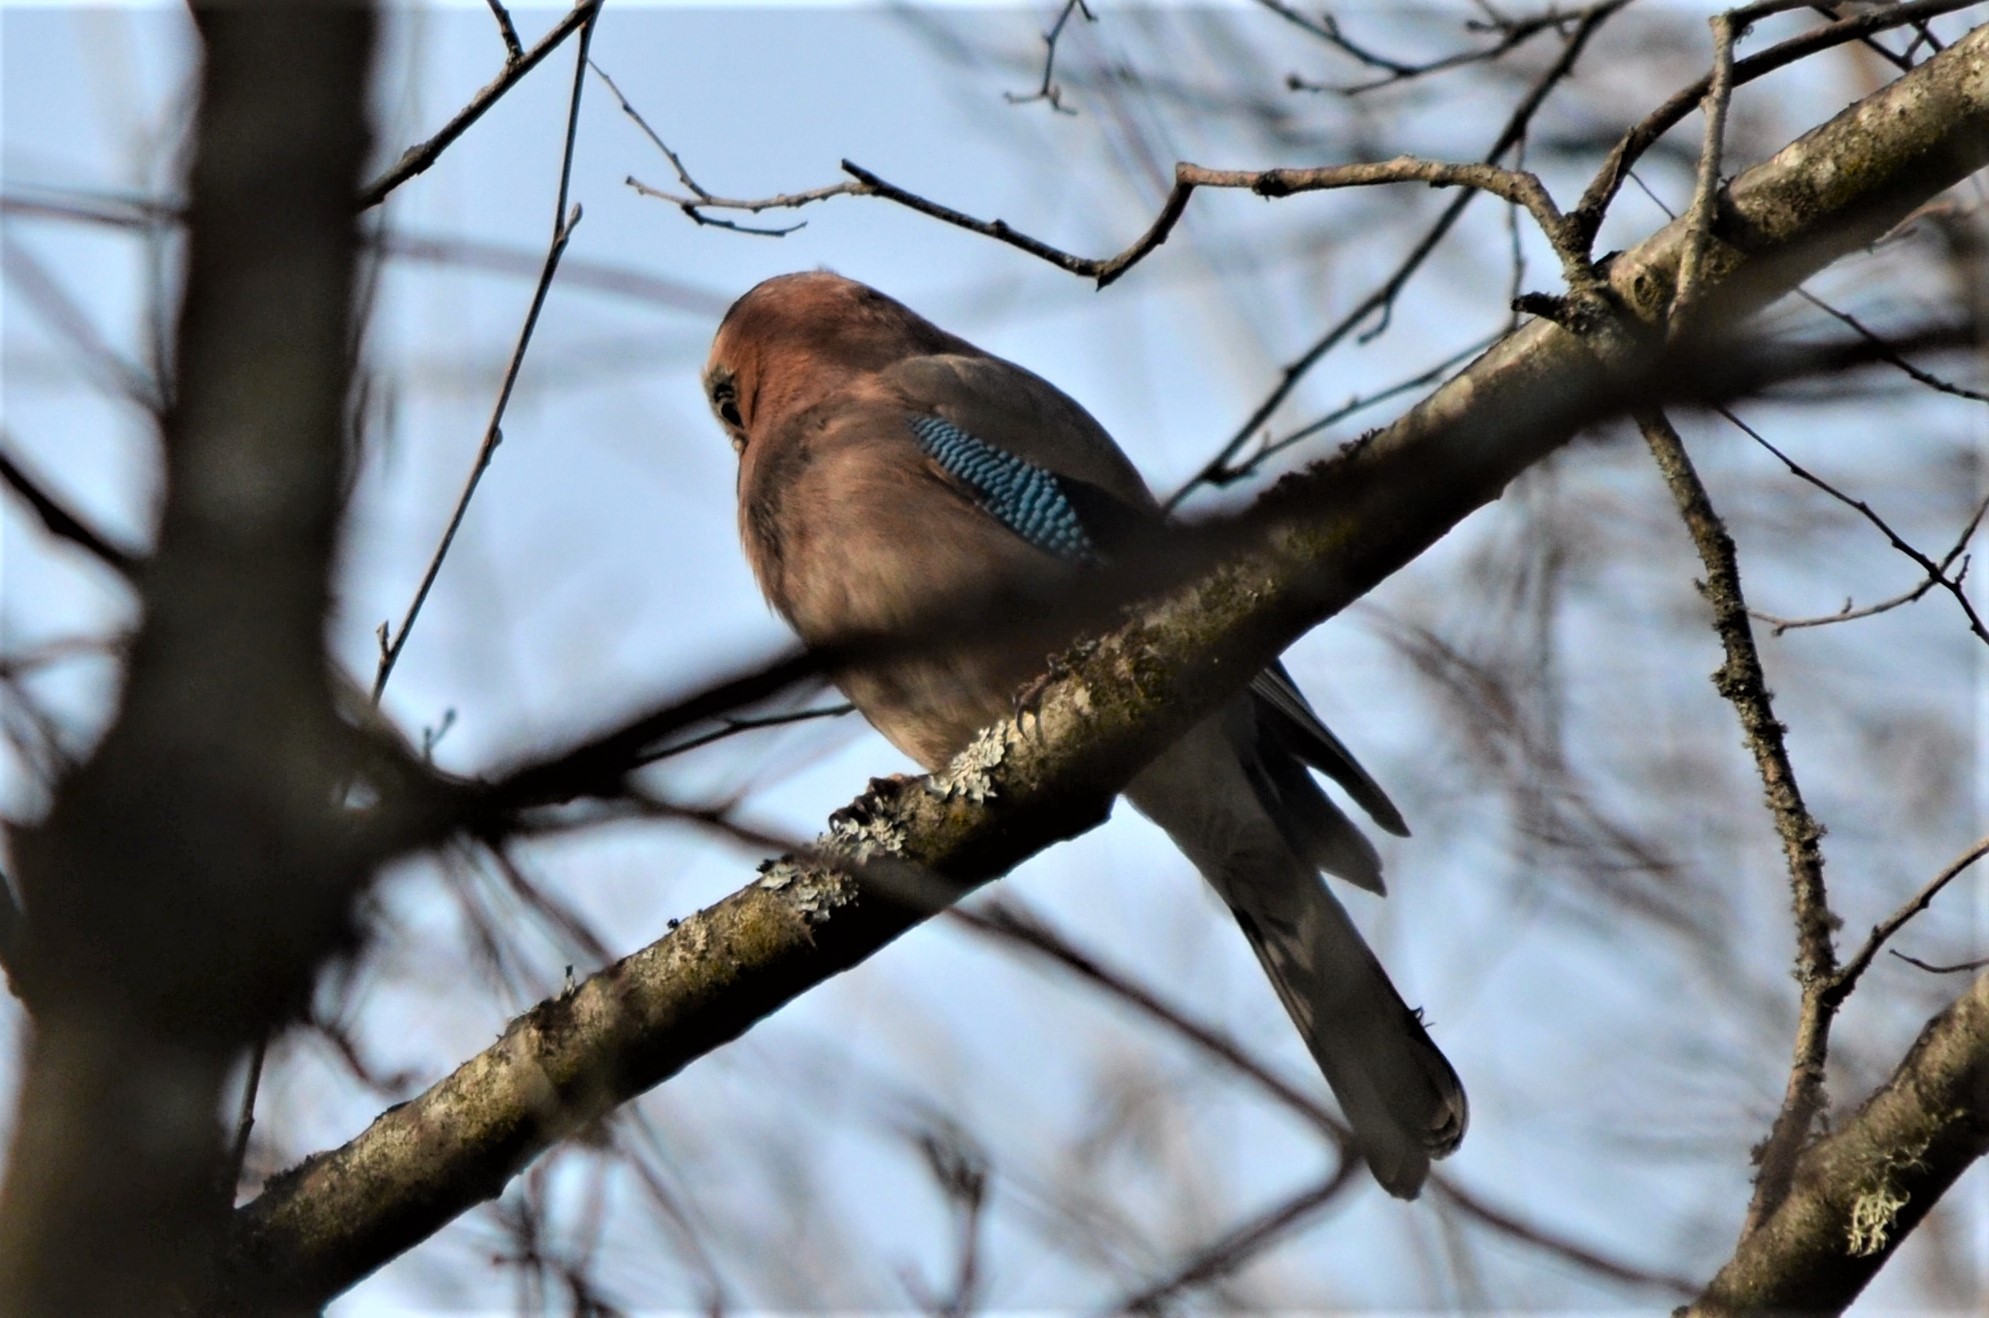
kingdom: Animalia
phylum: Chordata
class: Aves
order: Passeriformes
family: Corvidae
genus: Garrulus
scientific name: Garrulus glandarius
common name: Eurasian jay
